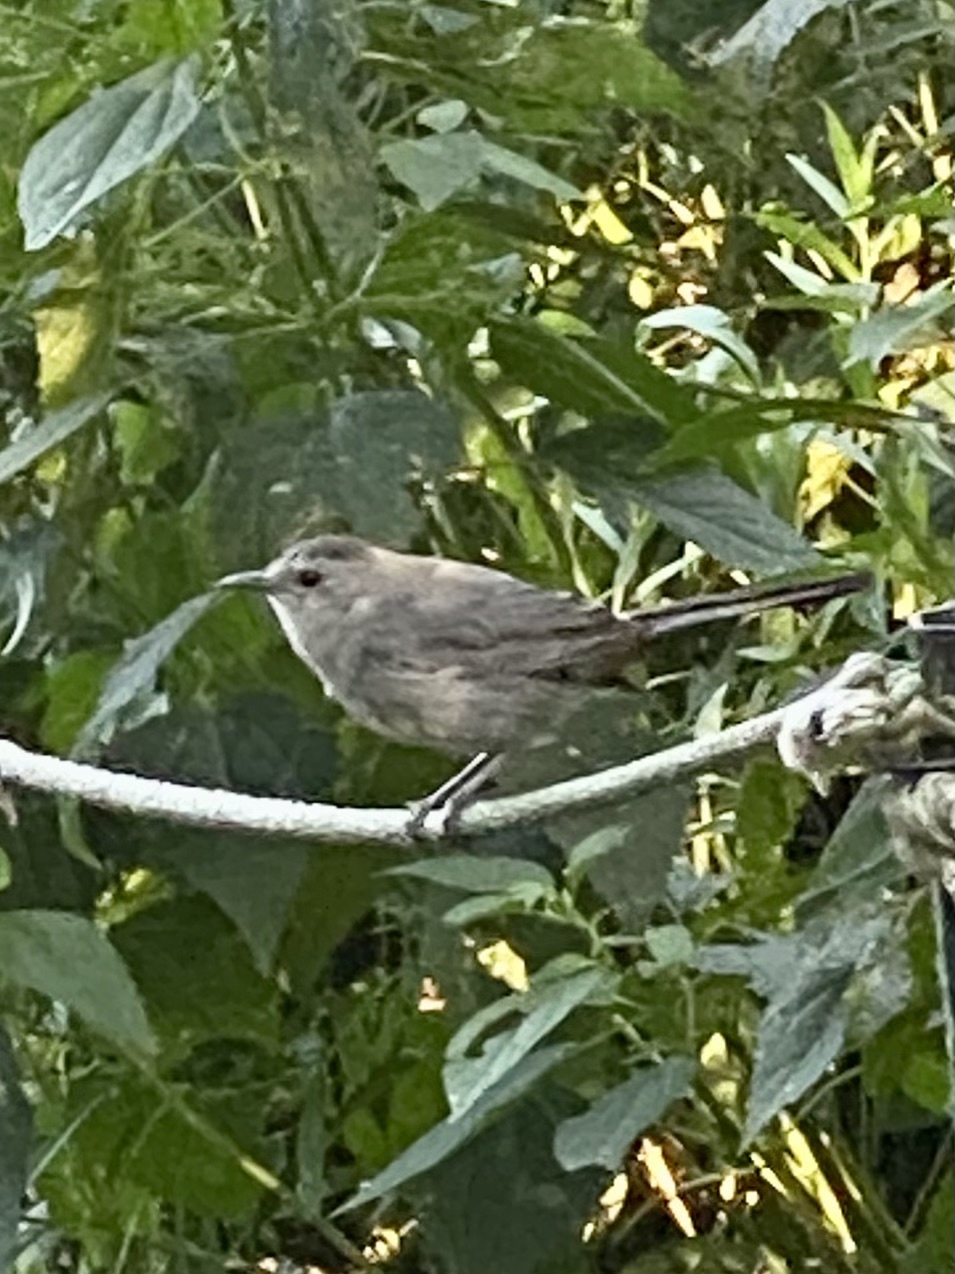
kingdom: Animalia
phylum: Chordata
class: Aves
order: Passeriformes
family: Mimidae
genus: Dumetella
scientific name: Dumetella carolinensis
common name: Gray catbird
